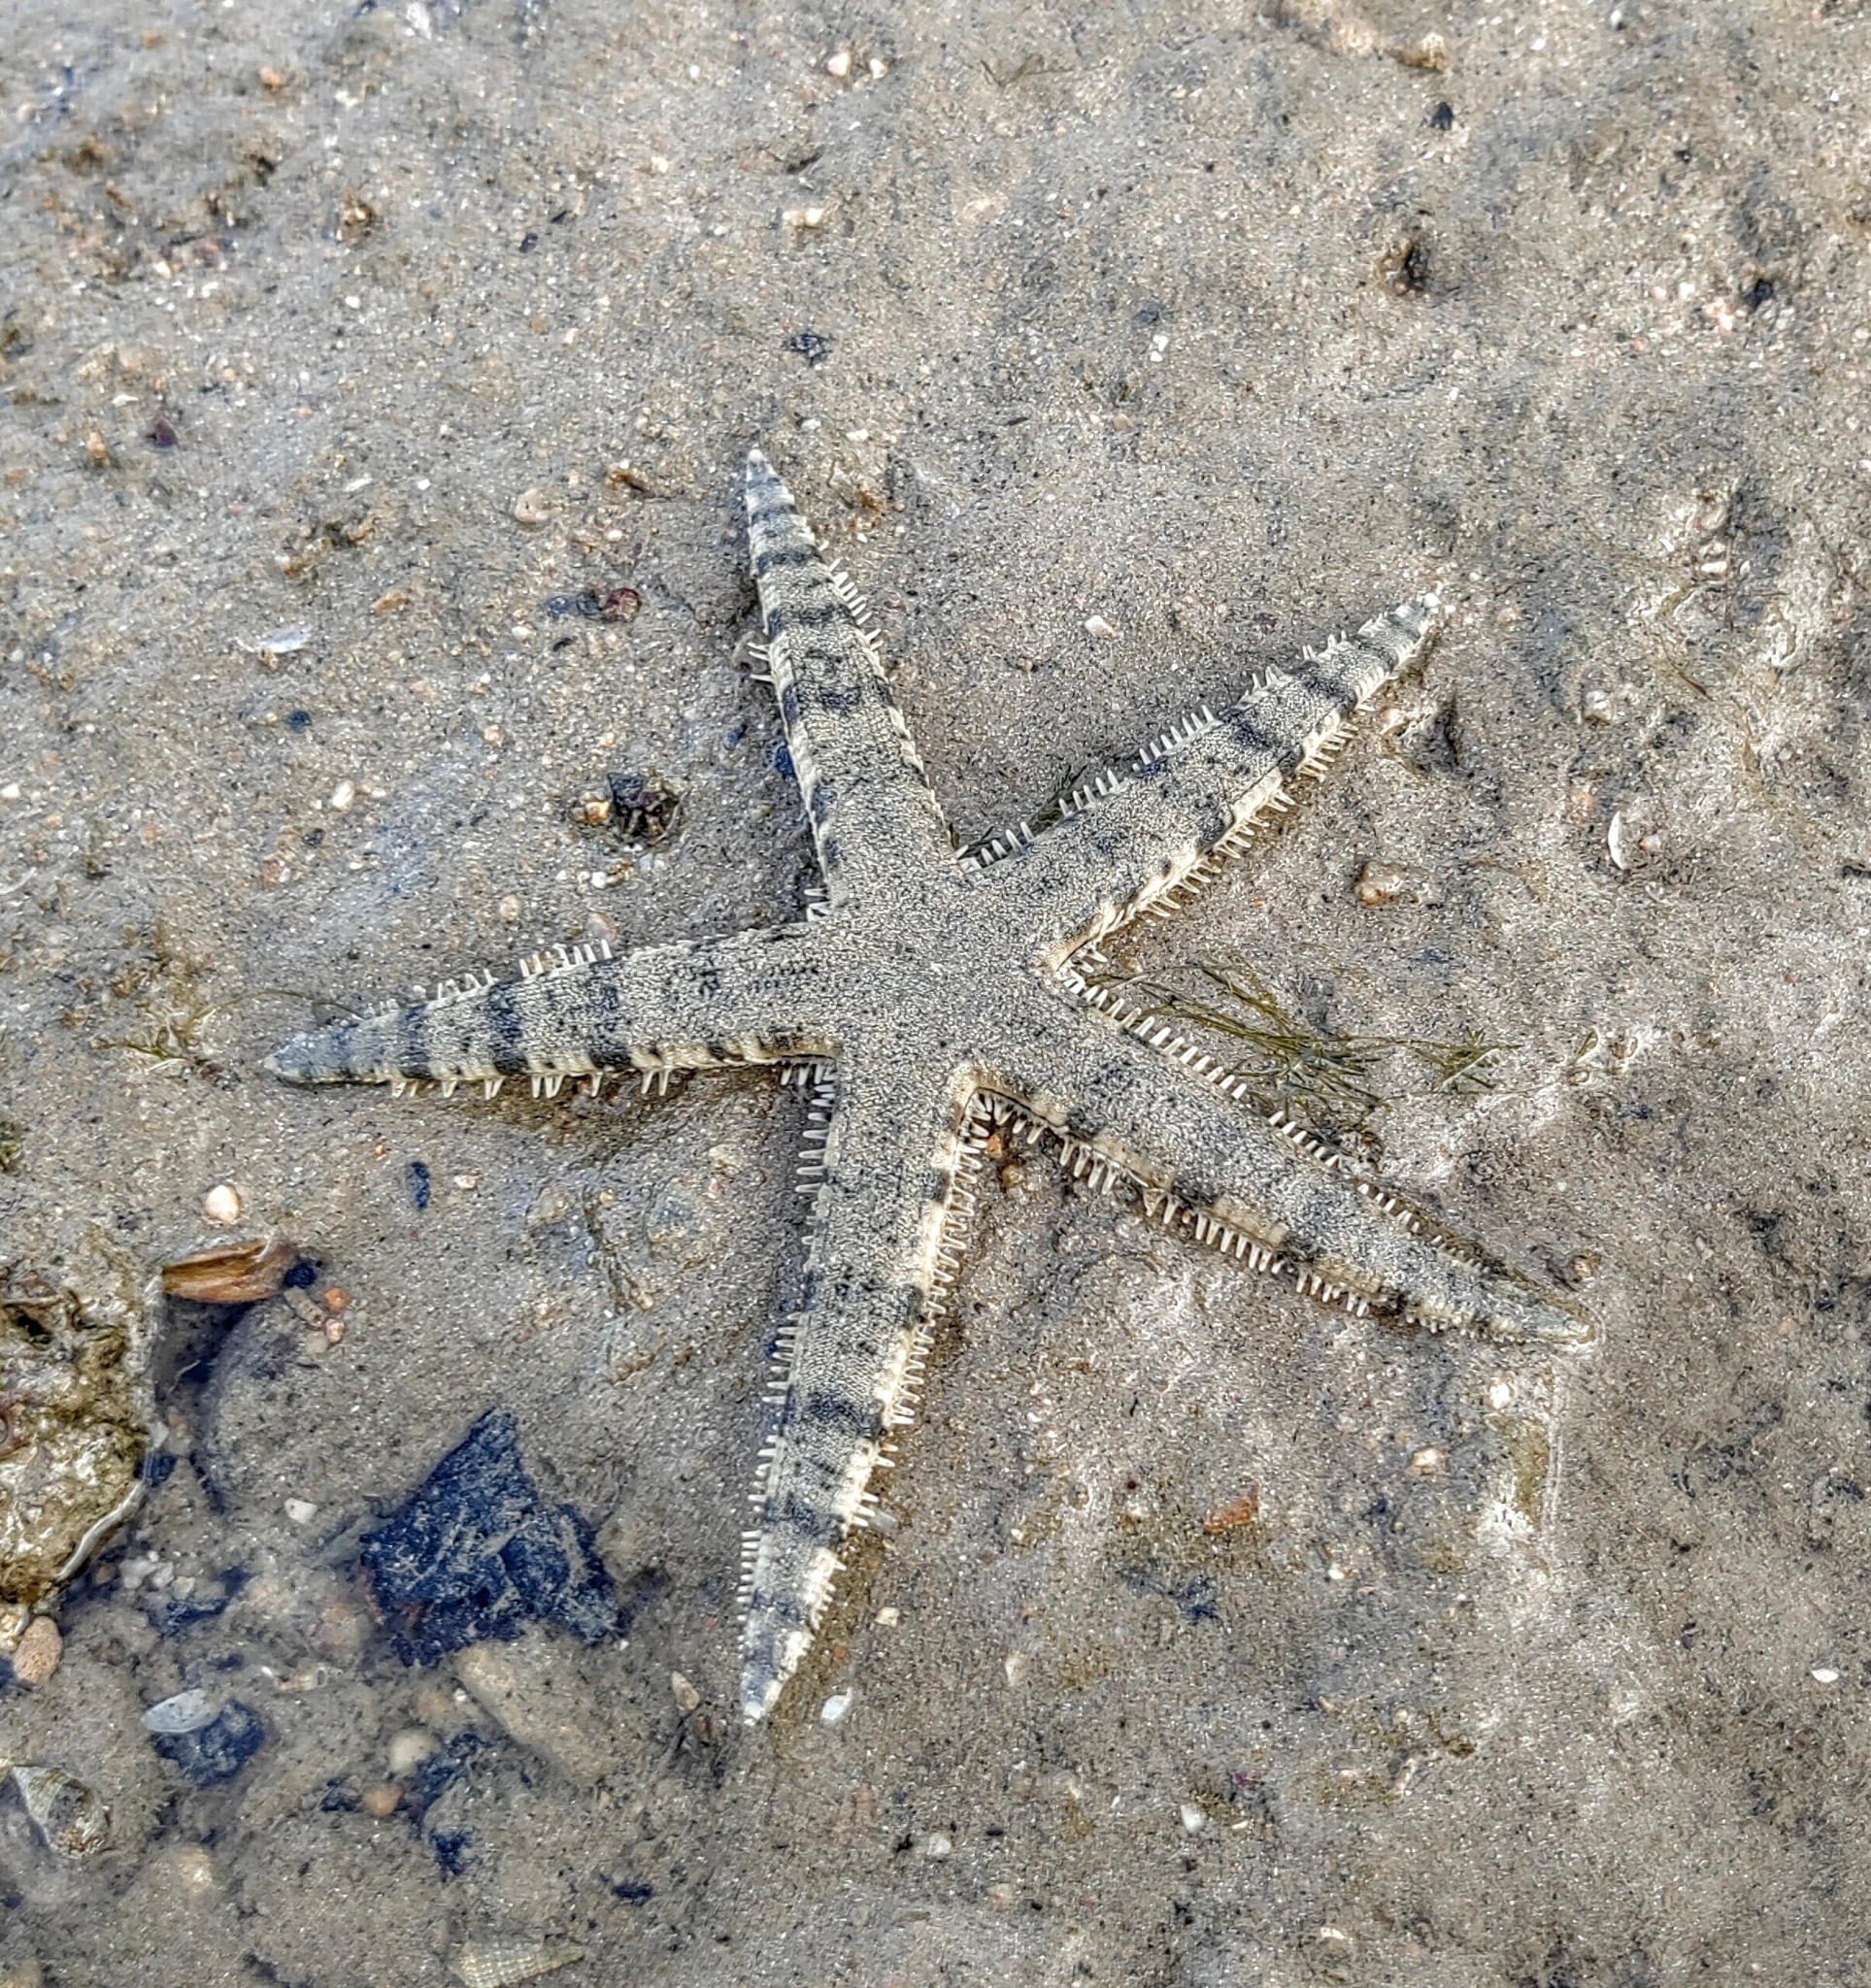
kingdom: Animalia
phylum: Echinodermata
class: Asteroidea
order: Valvatida
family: Archasteridae
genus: Archaster
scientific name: Archaster typicus
